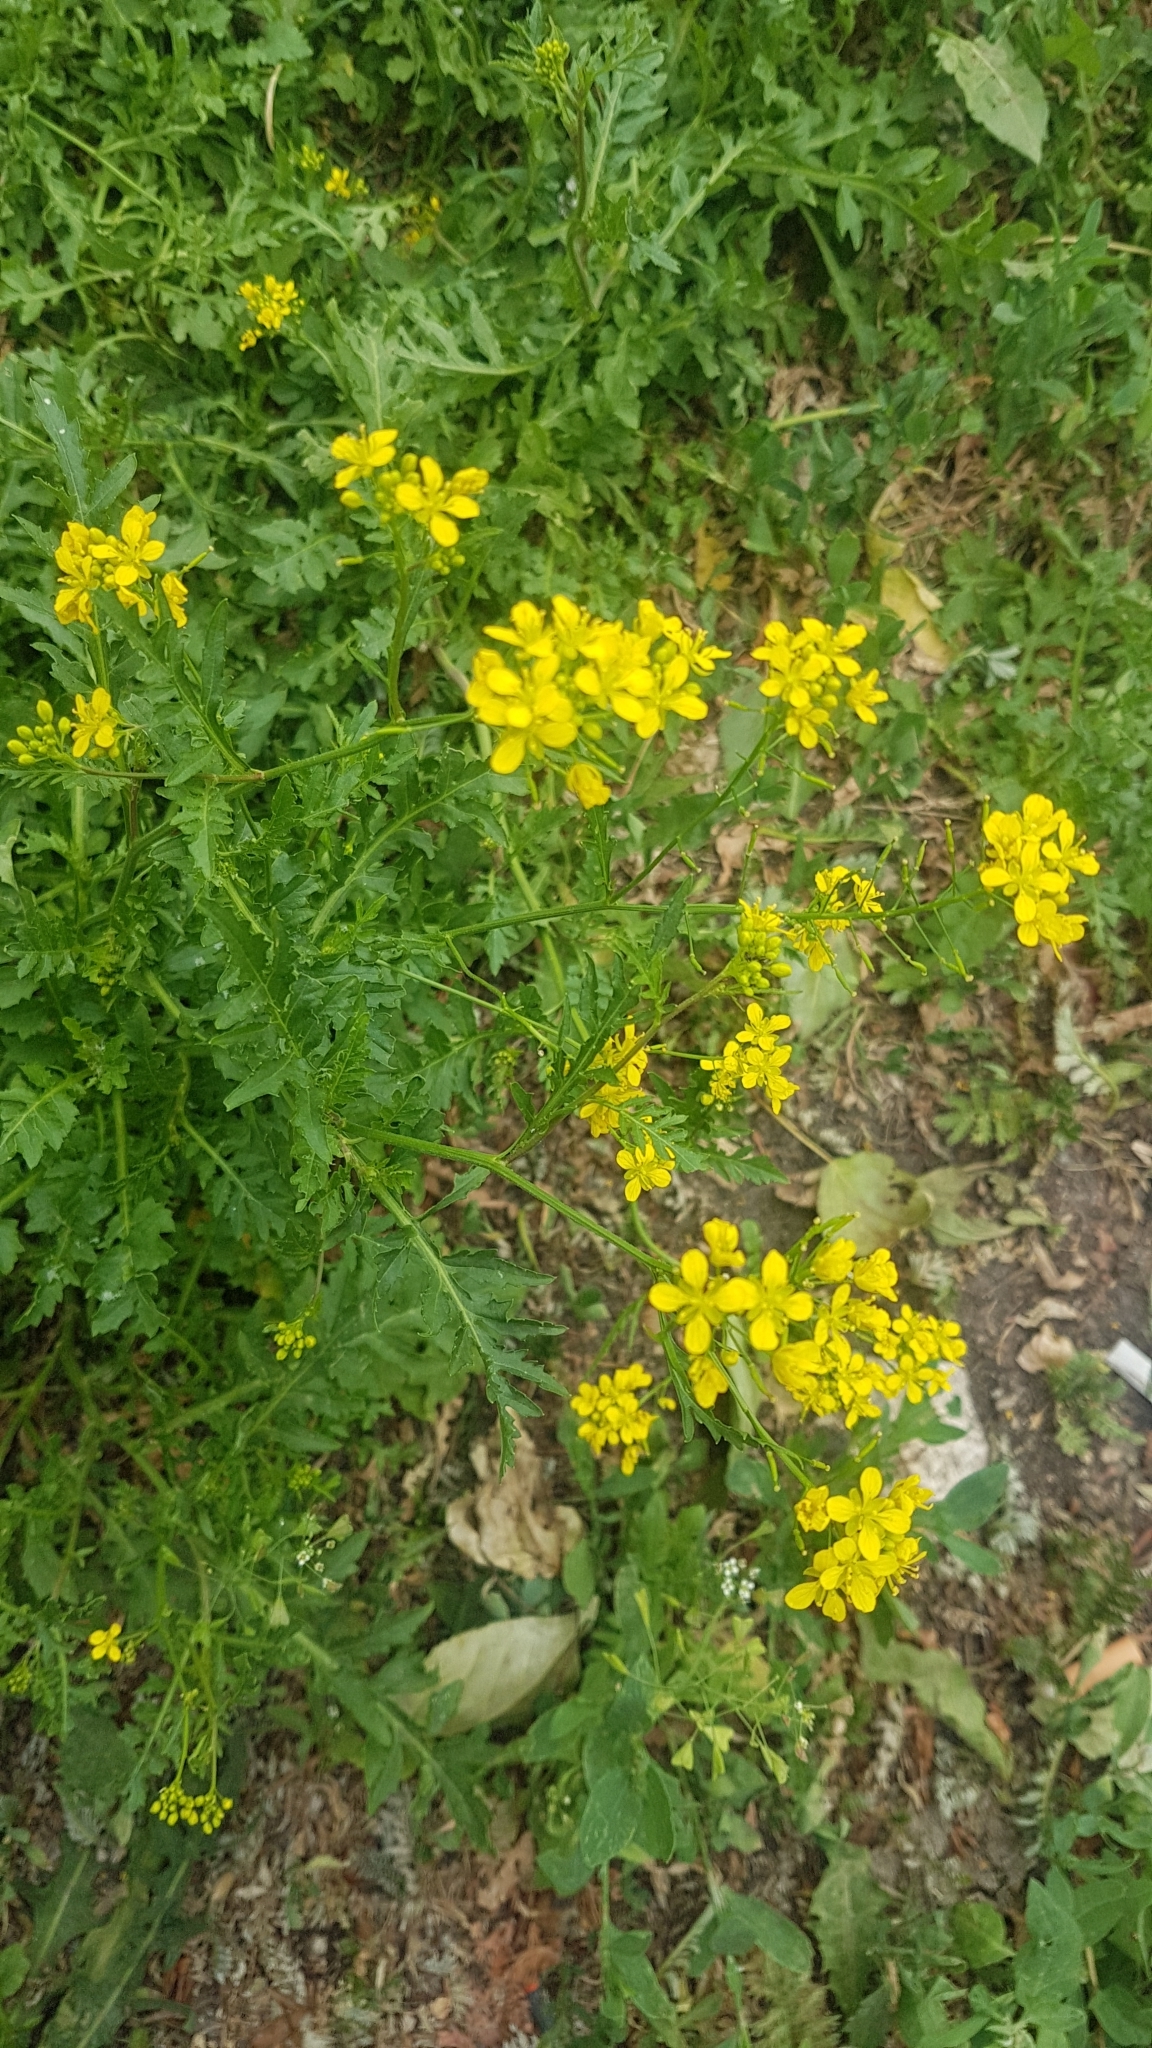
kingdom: Plantae
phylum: Tracheophyta
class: Magnoliopsida
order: Brassicales
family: Brassicaceae
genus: Rorippa
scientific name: Rorippa sylvestris
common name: Creeping yellowcress
